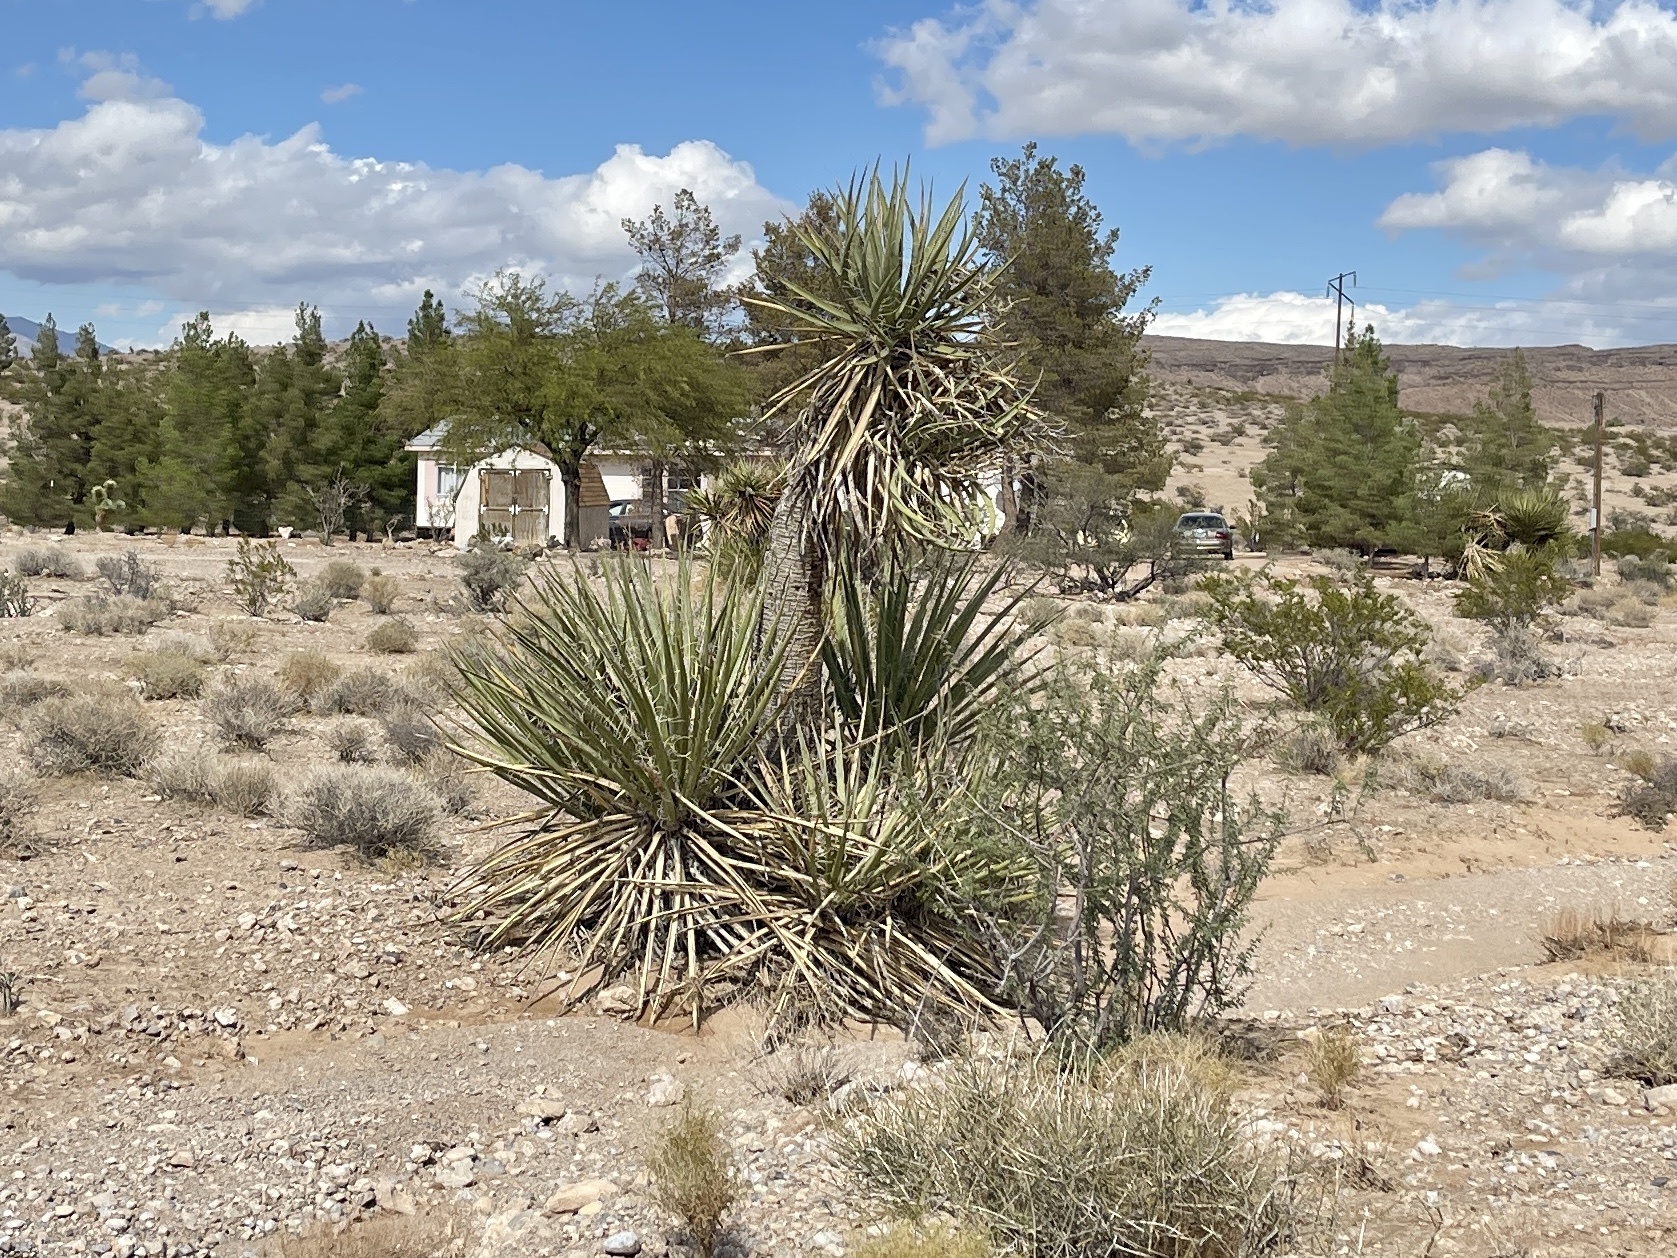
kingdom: Plantae
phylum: Tracheophyta
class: Liliopsida
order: Asparagales
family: Asparagaceae
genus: Yucca
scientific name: Yucca schidigera
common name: Mojave yucca
